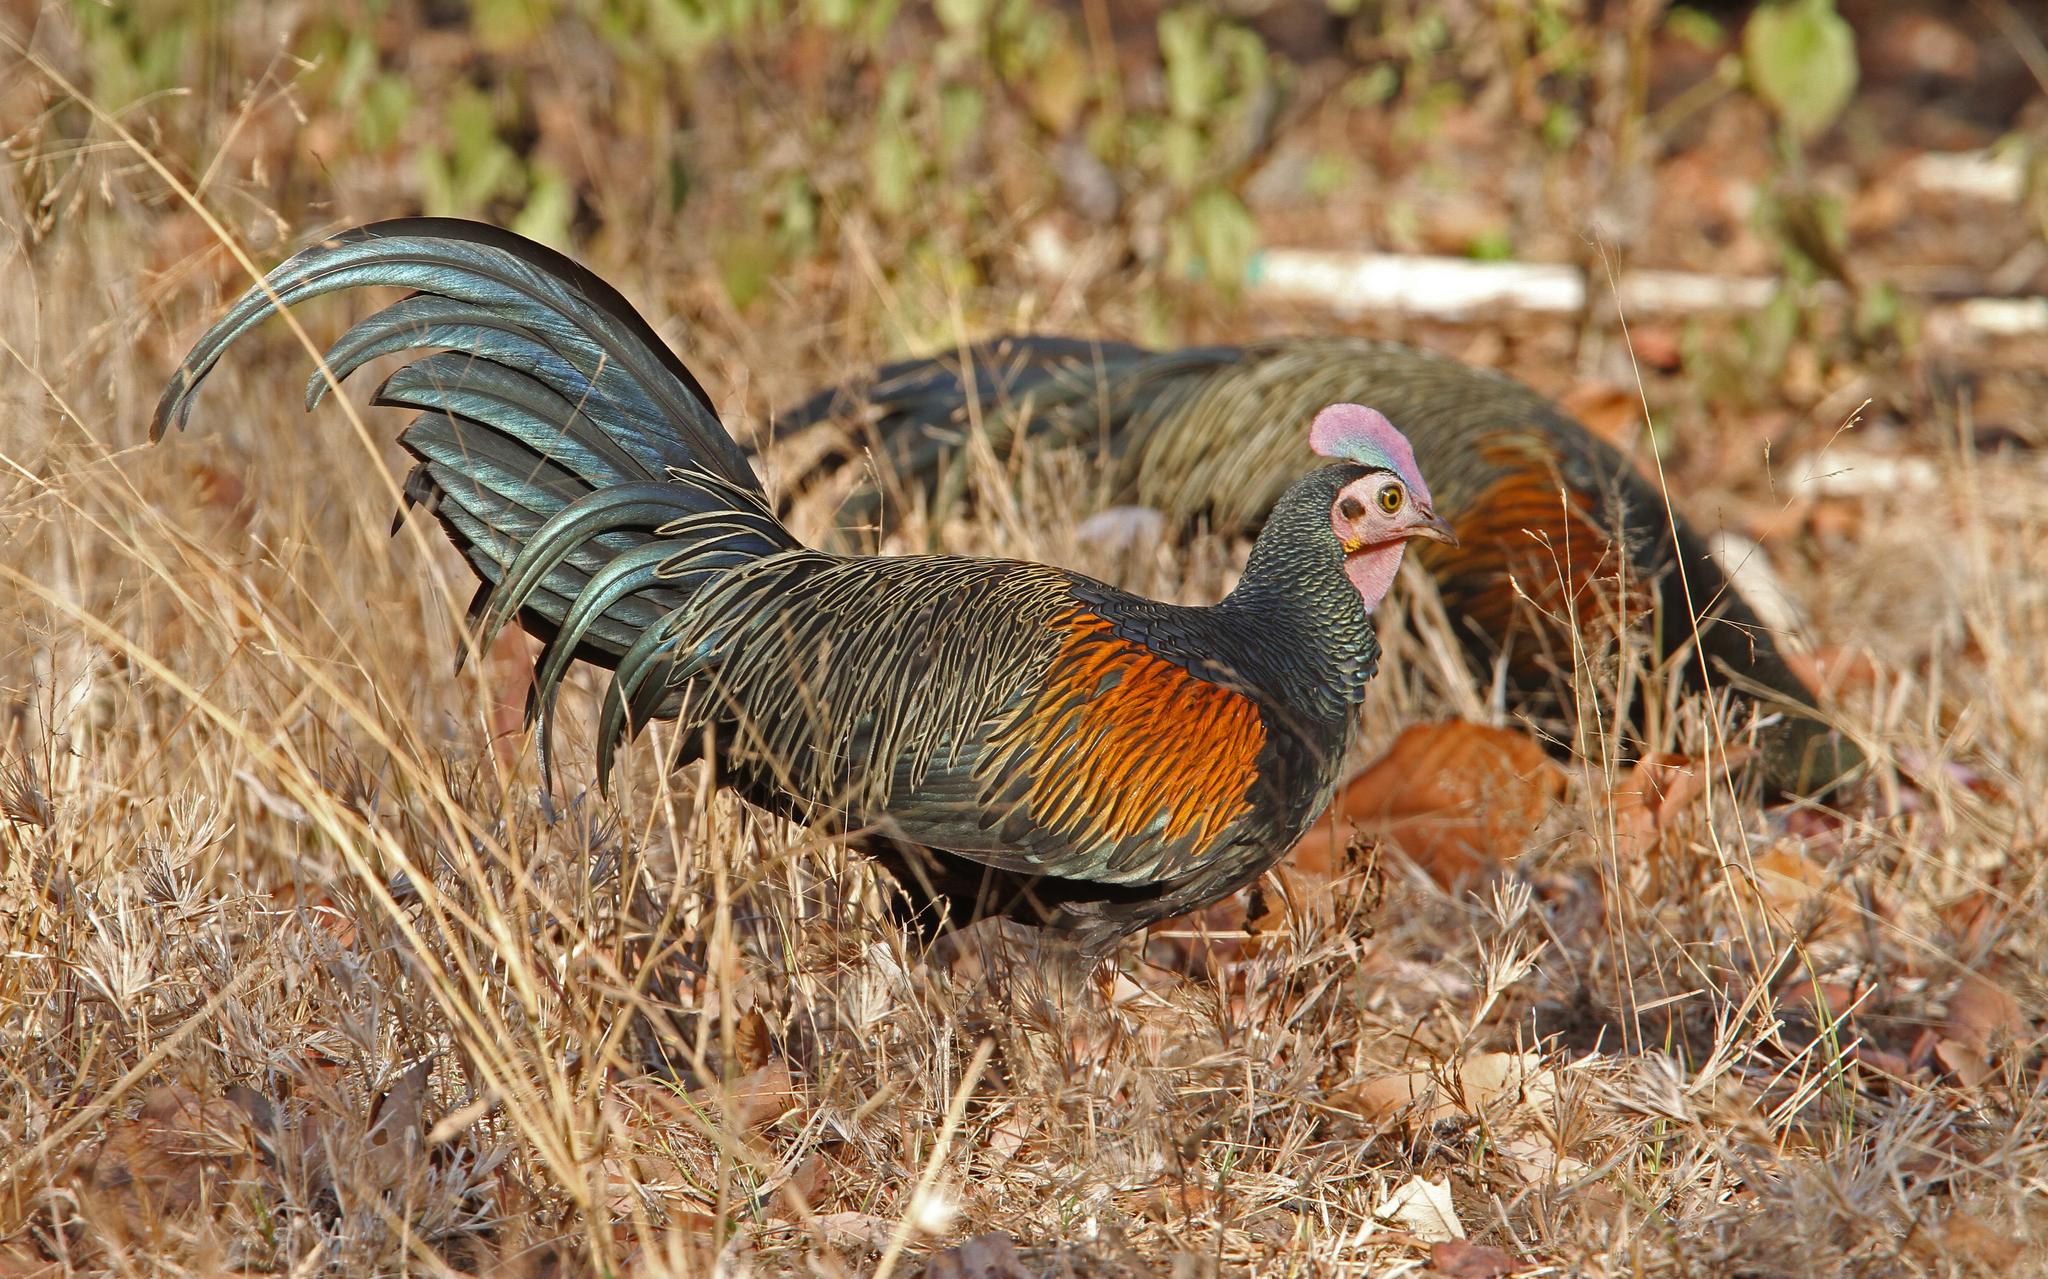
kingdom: Animalia
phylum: Chordata
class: Aves
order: Galliformes
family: Phasianidae
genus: Gallus
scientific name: Gallus varius
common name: Green junglefowl
